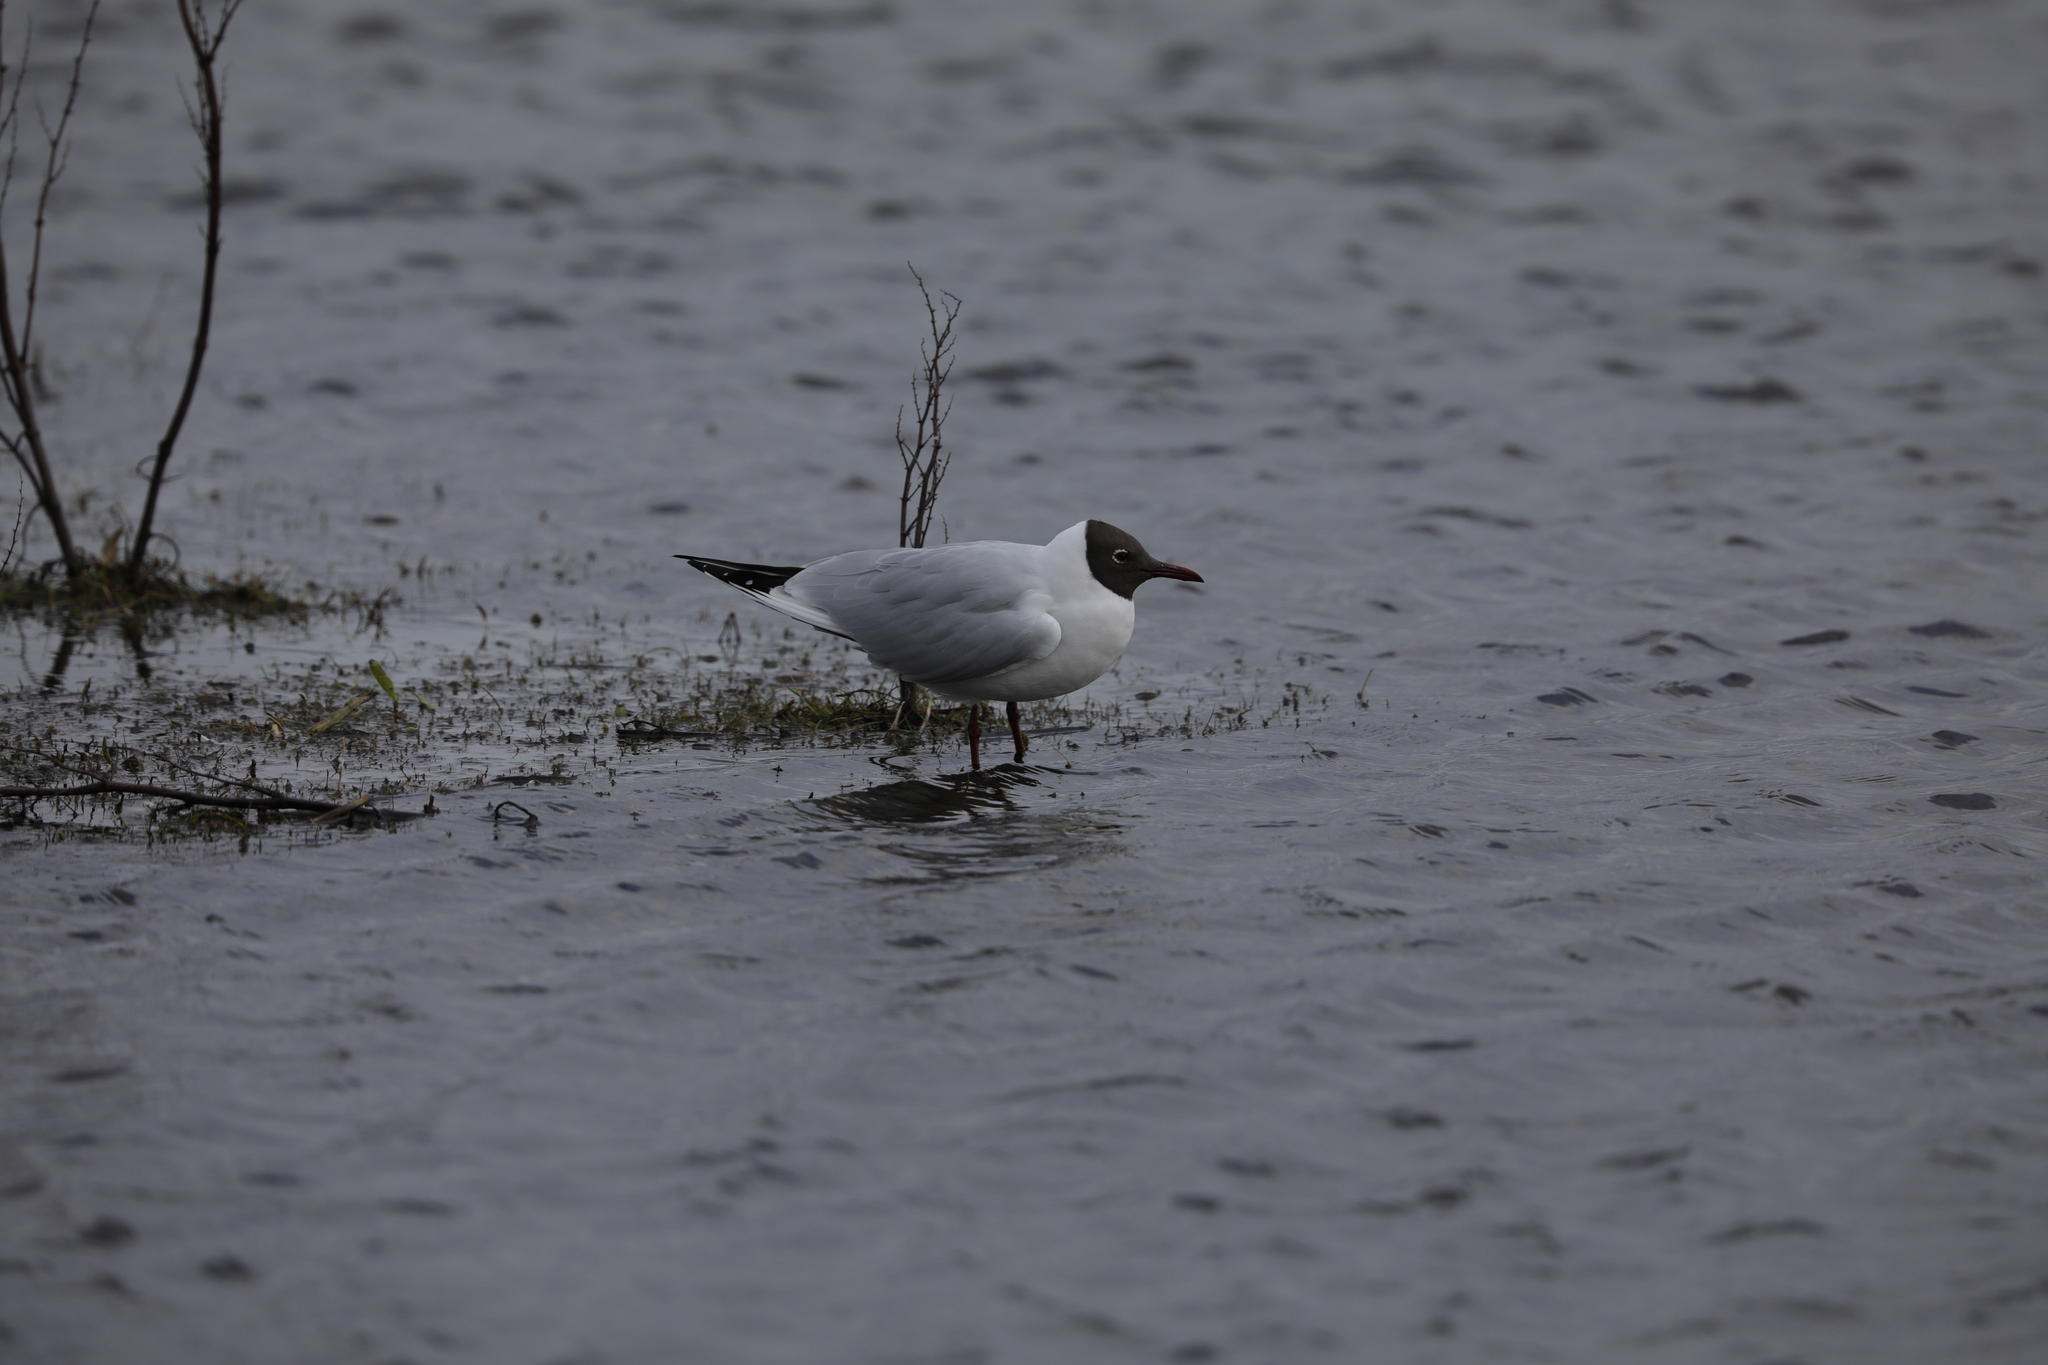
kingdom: Animalia
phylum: Chordata
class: Aves
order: Charadriiformes
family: Laridae
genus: Chroicocephalus
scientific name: Chroicocephalus ridibundus
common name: Black-headed gull
